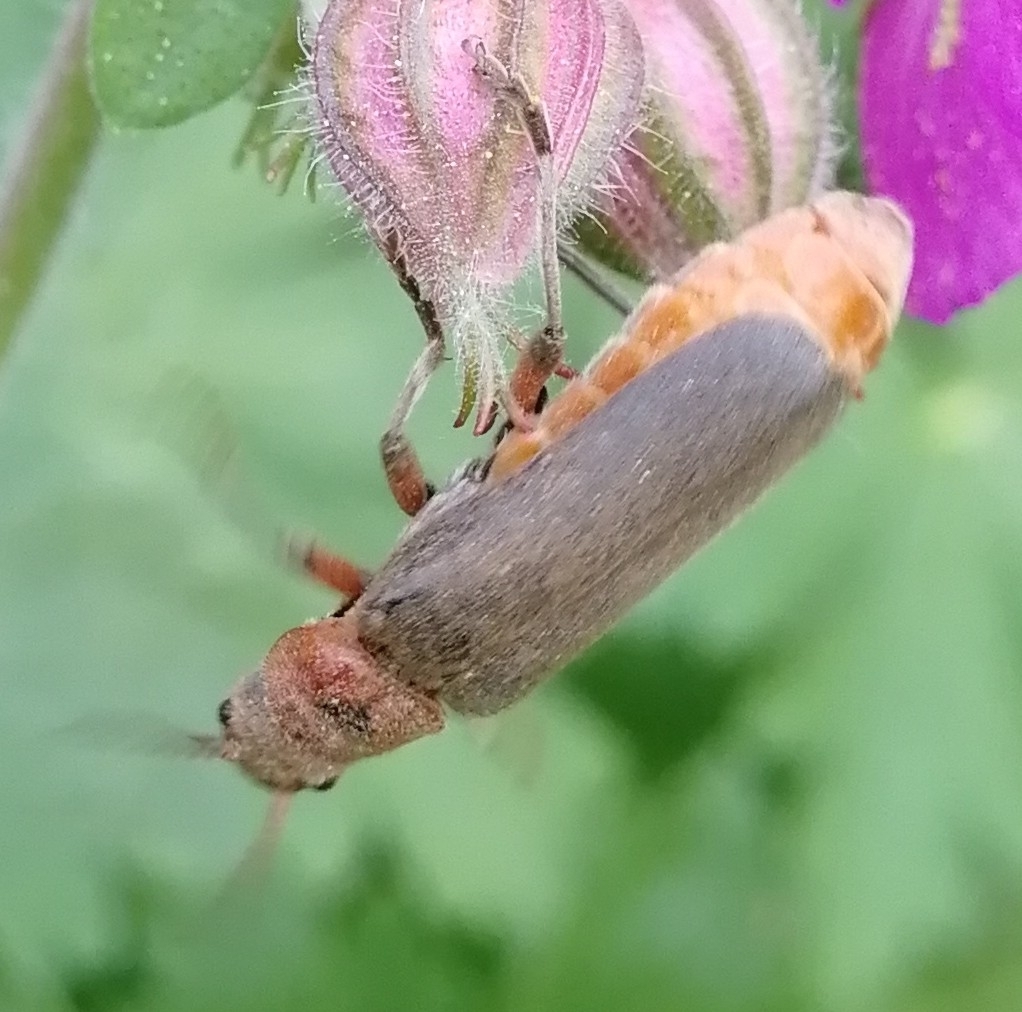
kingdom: Animalia
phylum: Arthropoda
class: Insecta
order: Coleoptera
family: Cantharidae
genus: Cantharis
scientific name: Cantharis rustica
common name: Soldier beetle
